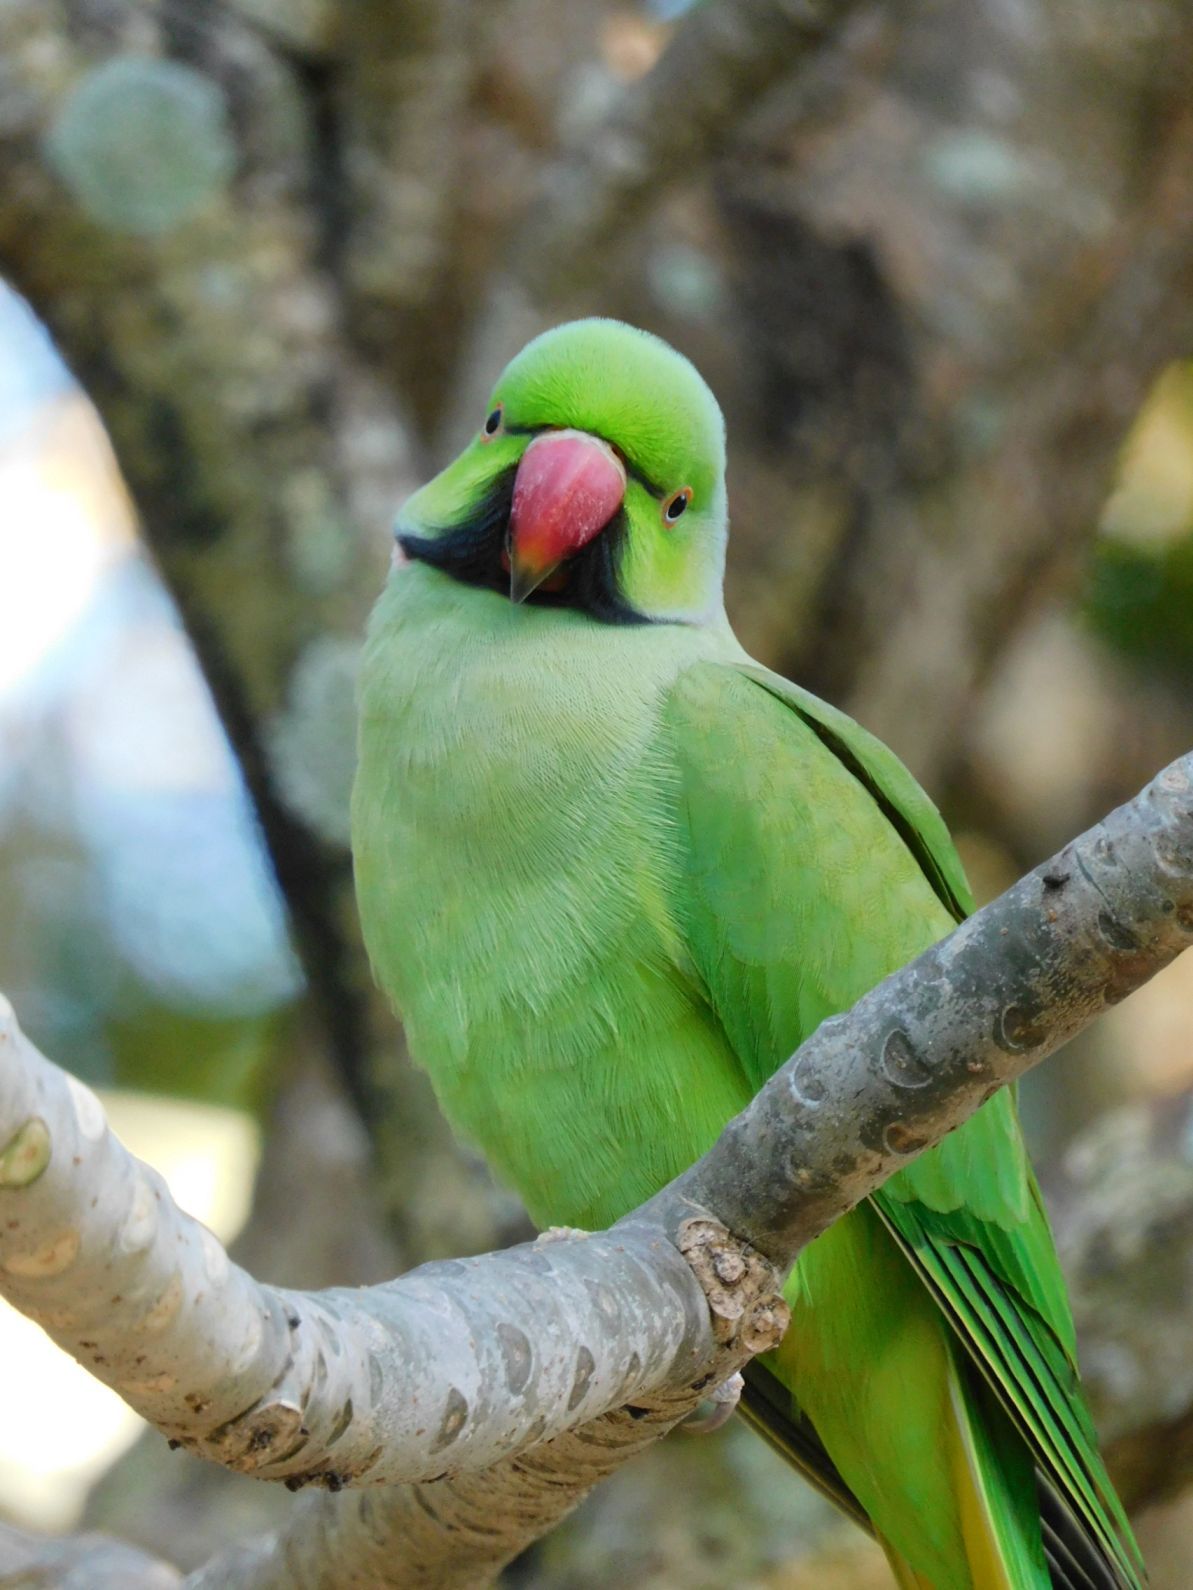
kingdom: Animalia
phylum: Chordata
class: Aves
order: Psittaciformes
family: Psittacidae
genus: Psittacula
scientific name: Psittacula krameri
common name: Rose-ringed parakeet
